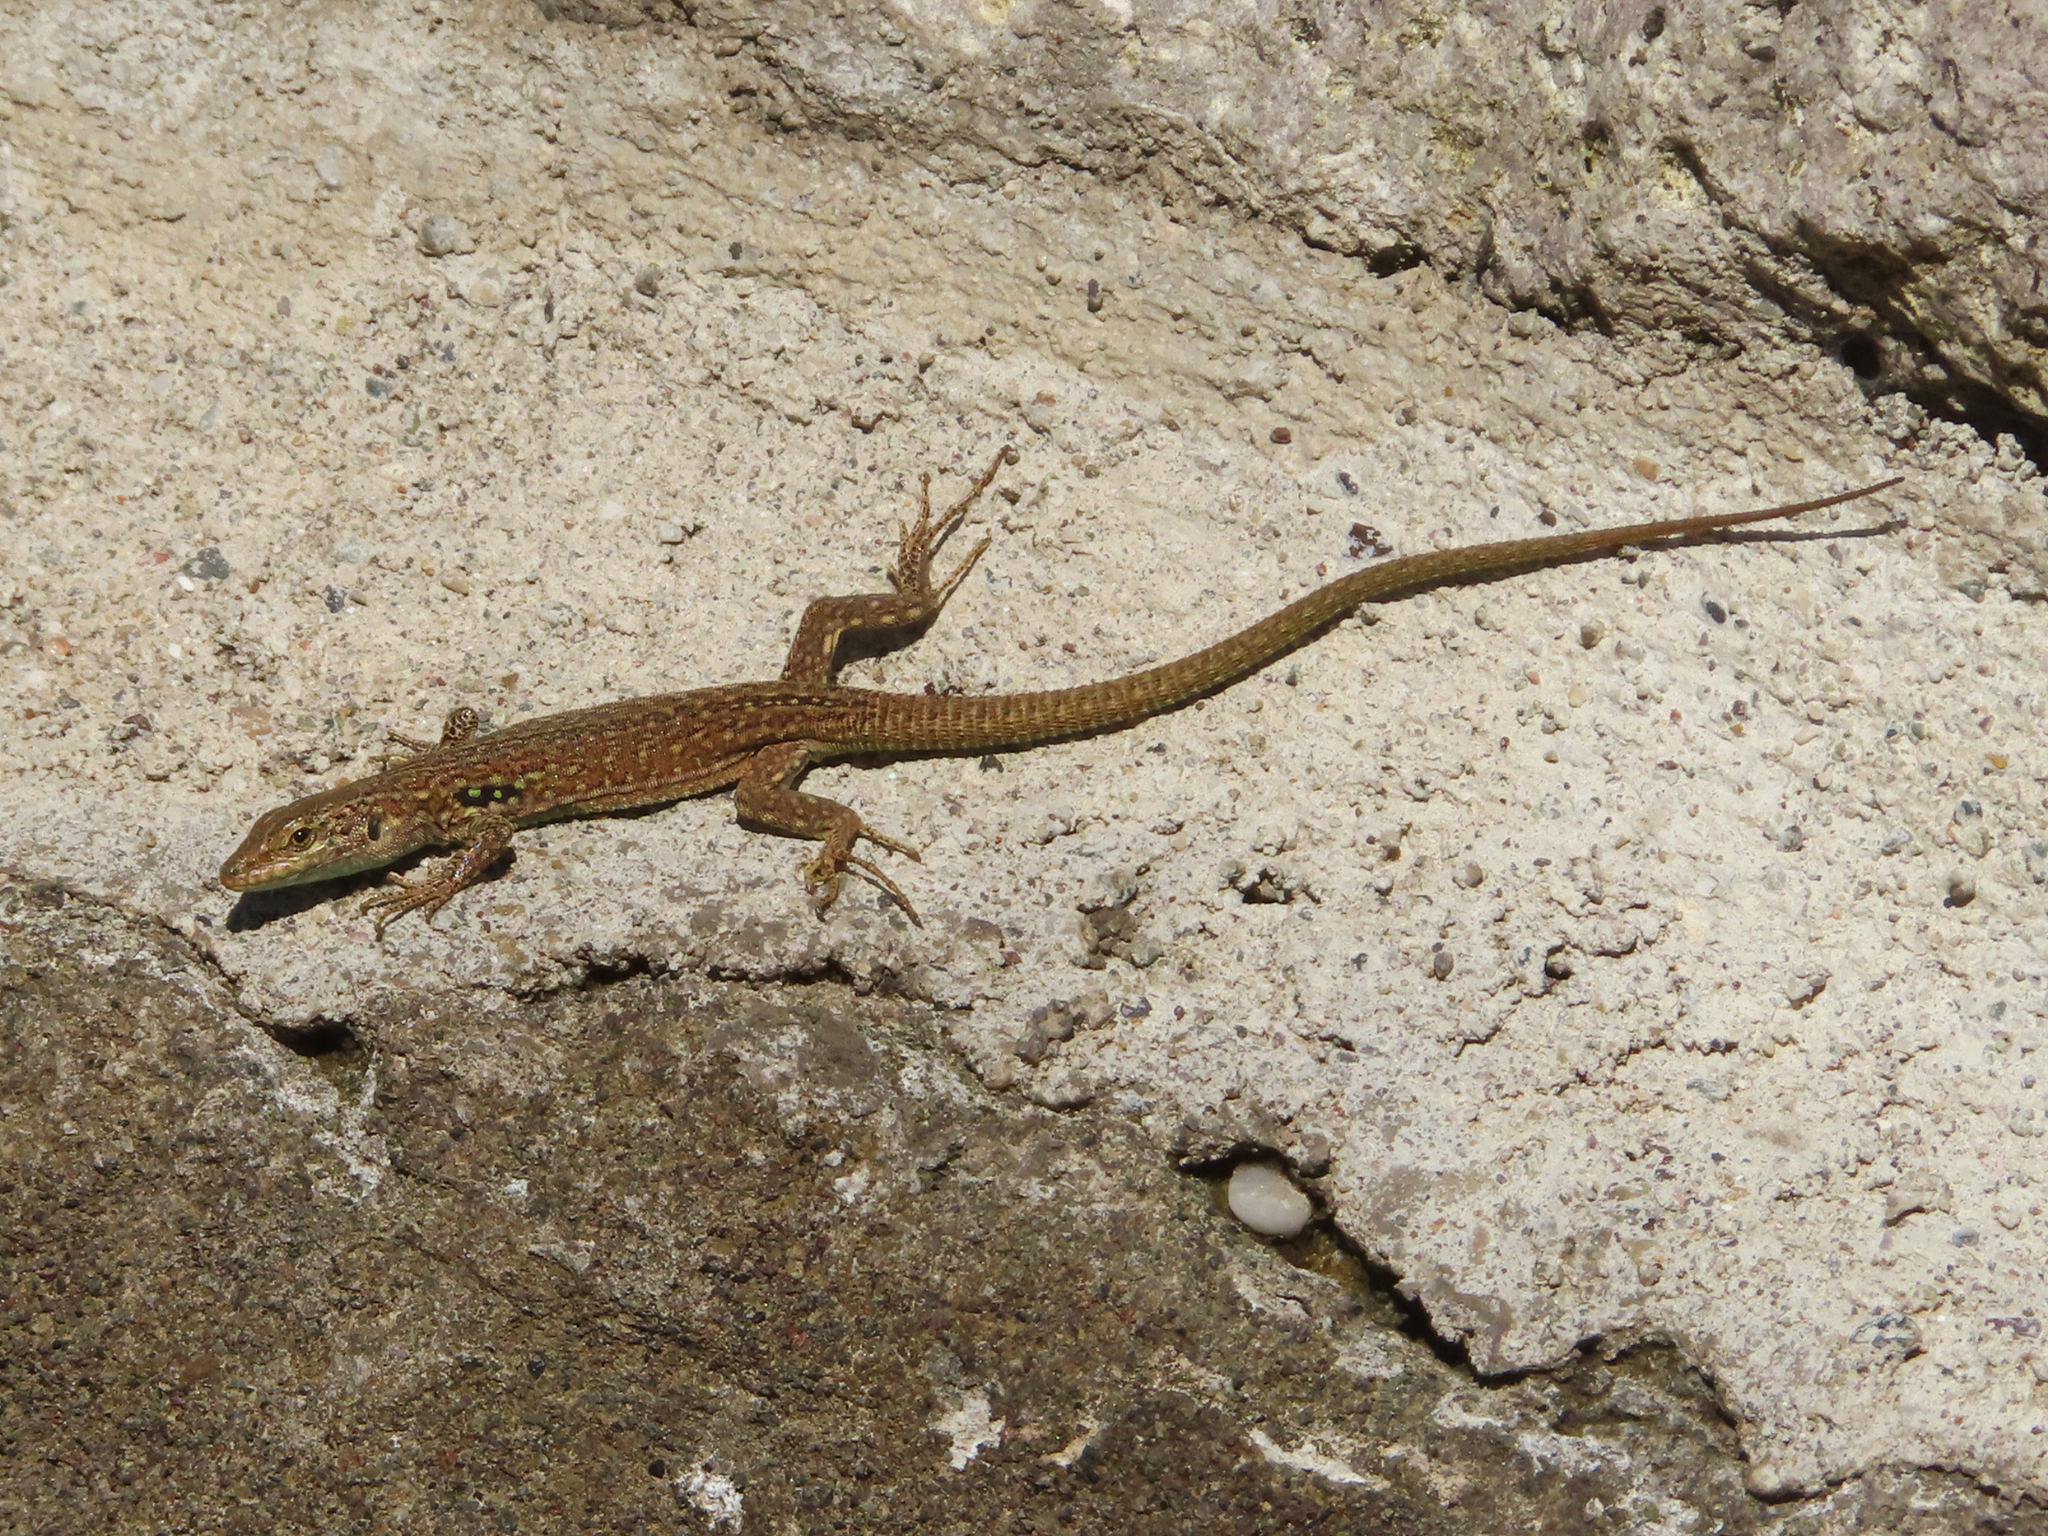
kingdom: Animalia
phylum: Chordata
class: Squamata
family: Lacertidae
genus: Podarcis
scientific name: Podarcis siculus
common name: Italian wall lizard
